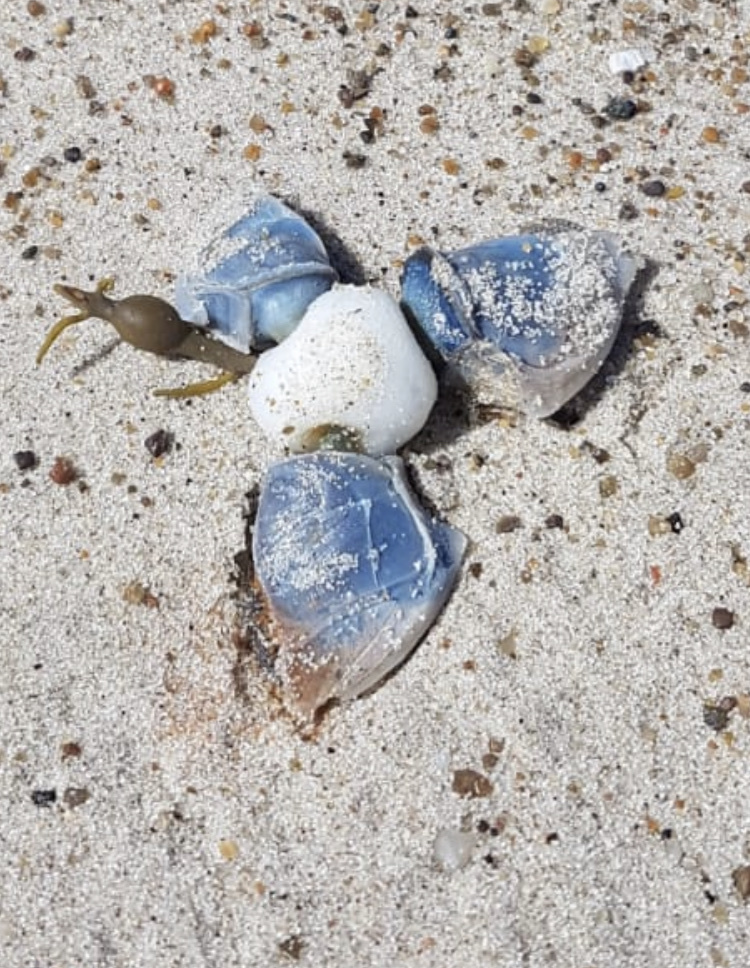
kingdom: Animalia
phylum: Arthropoda
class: Maxillopoda
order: Pedunculata
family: Lepadidae
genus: Dosima
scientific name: Dosima fascicularis
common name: Buoy barnacle
